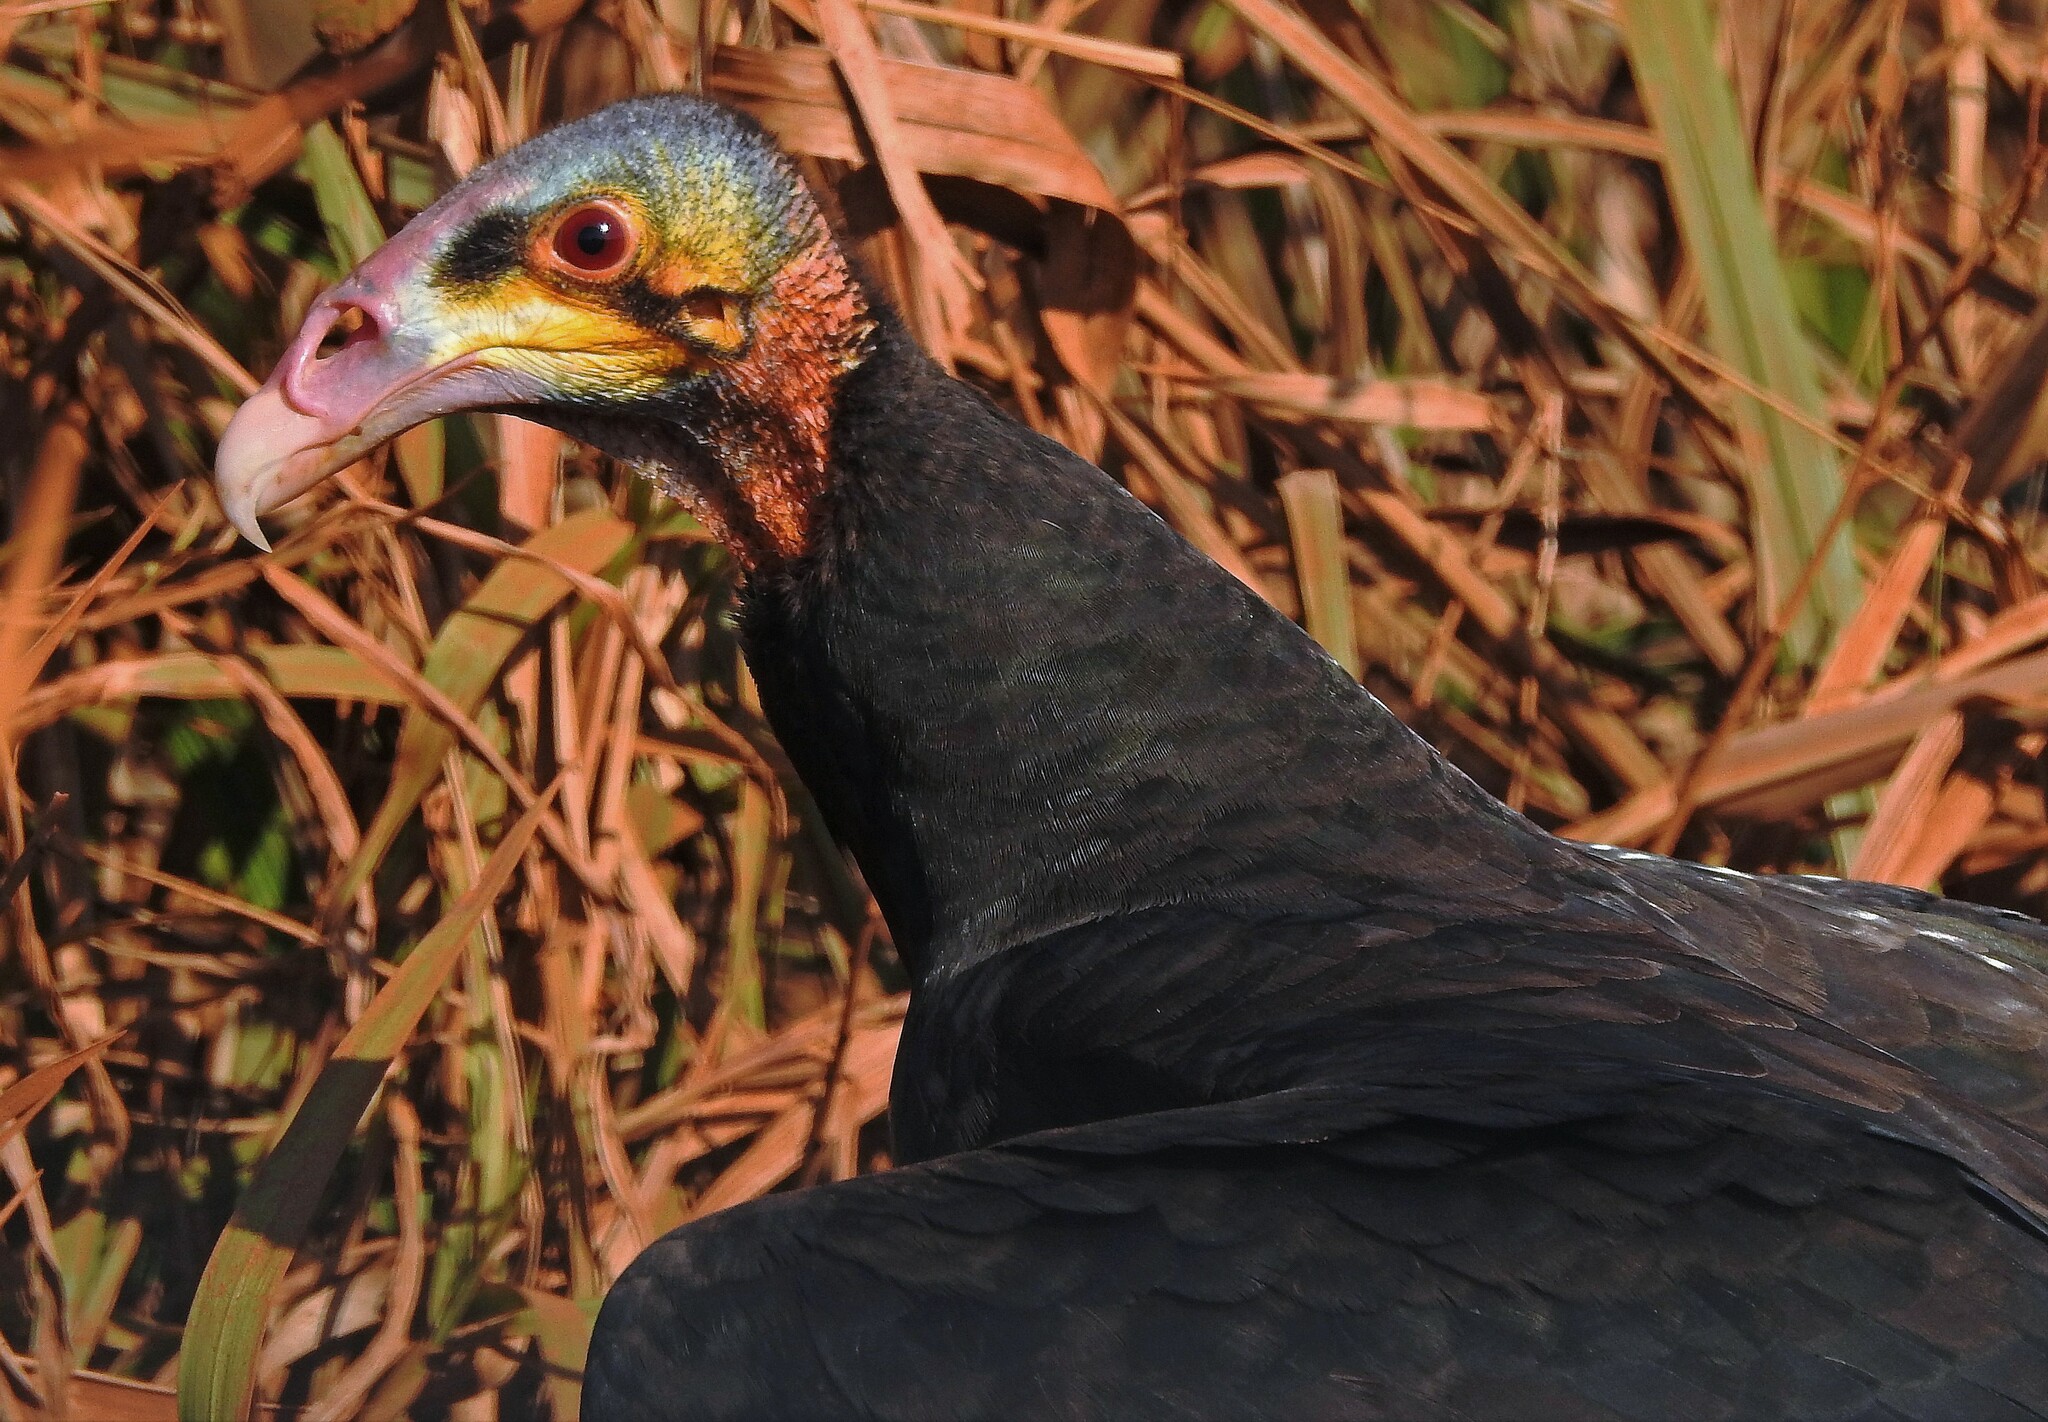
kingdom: Animalia
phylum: Chordata
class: Aves
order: Accipitriformes
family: Cathartidae
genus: Cathartes
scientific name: Cathartes burrovianus
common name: Lesser yellow-headed vulture
